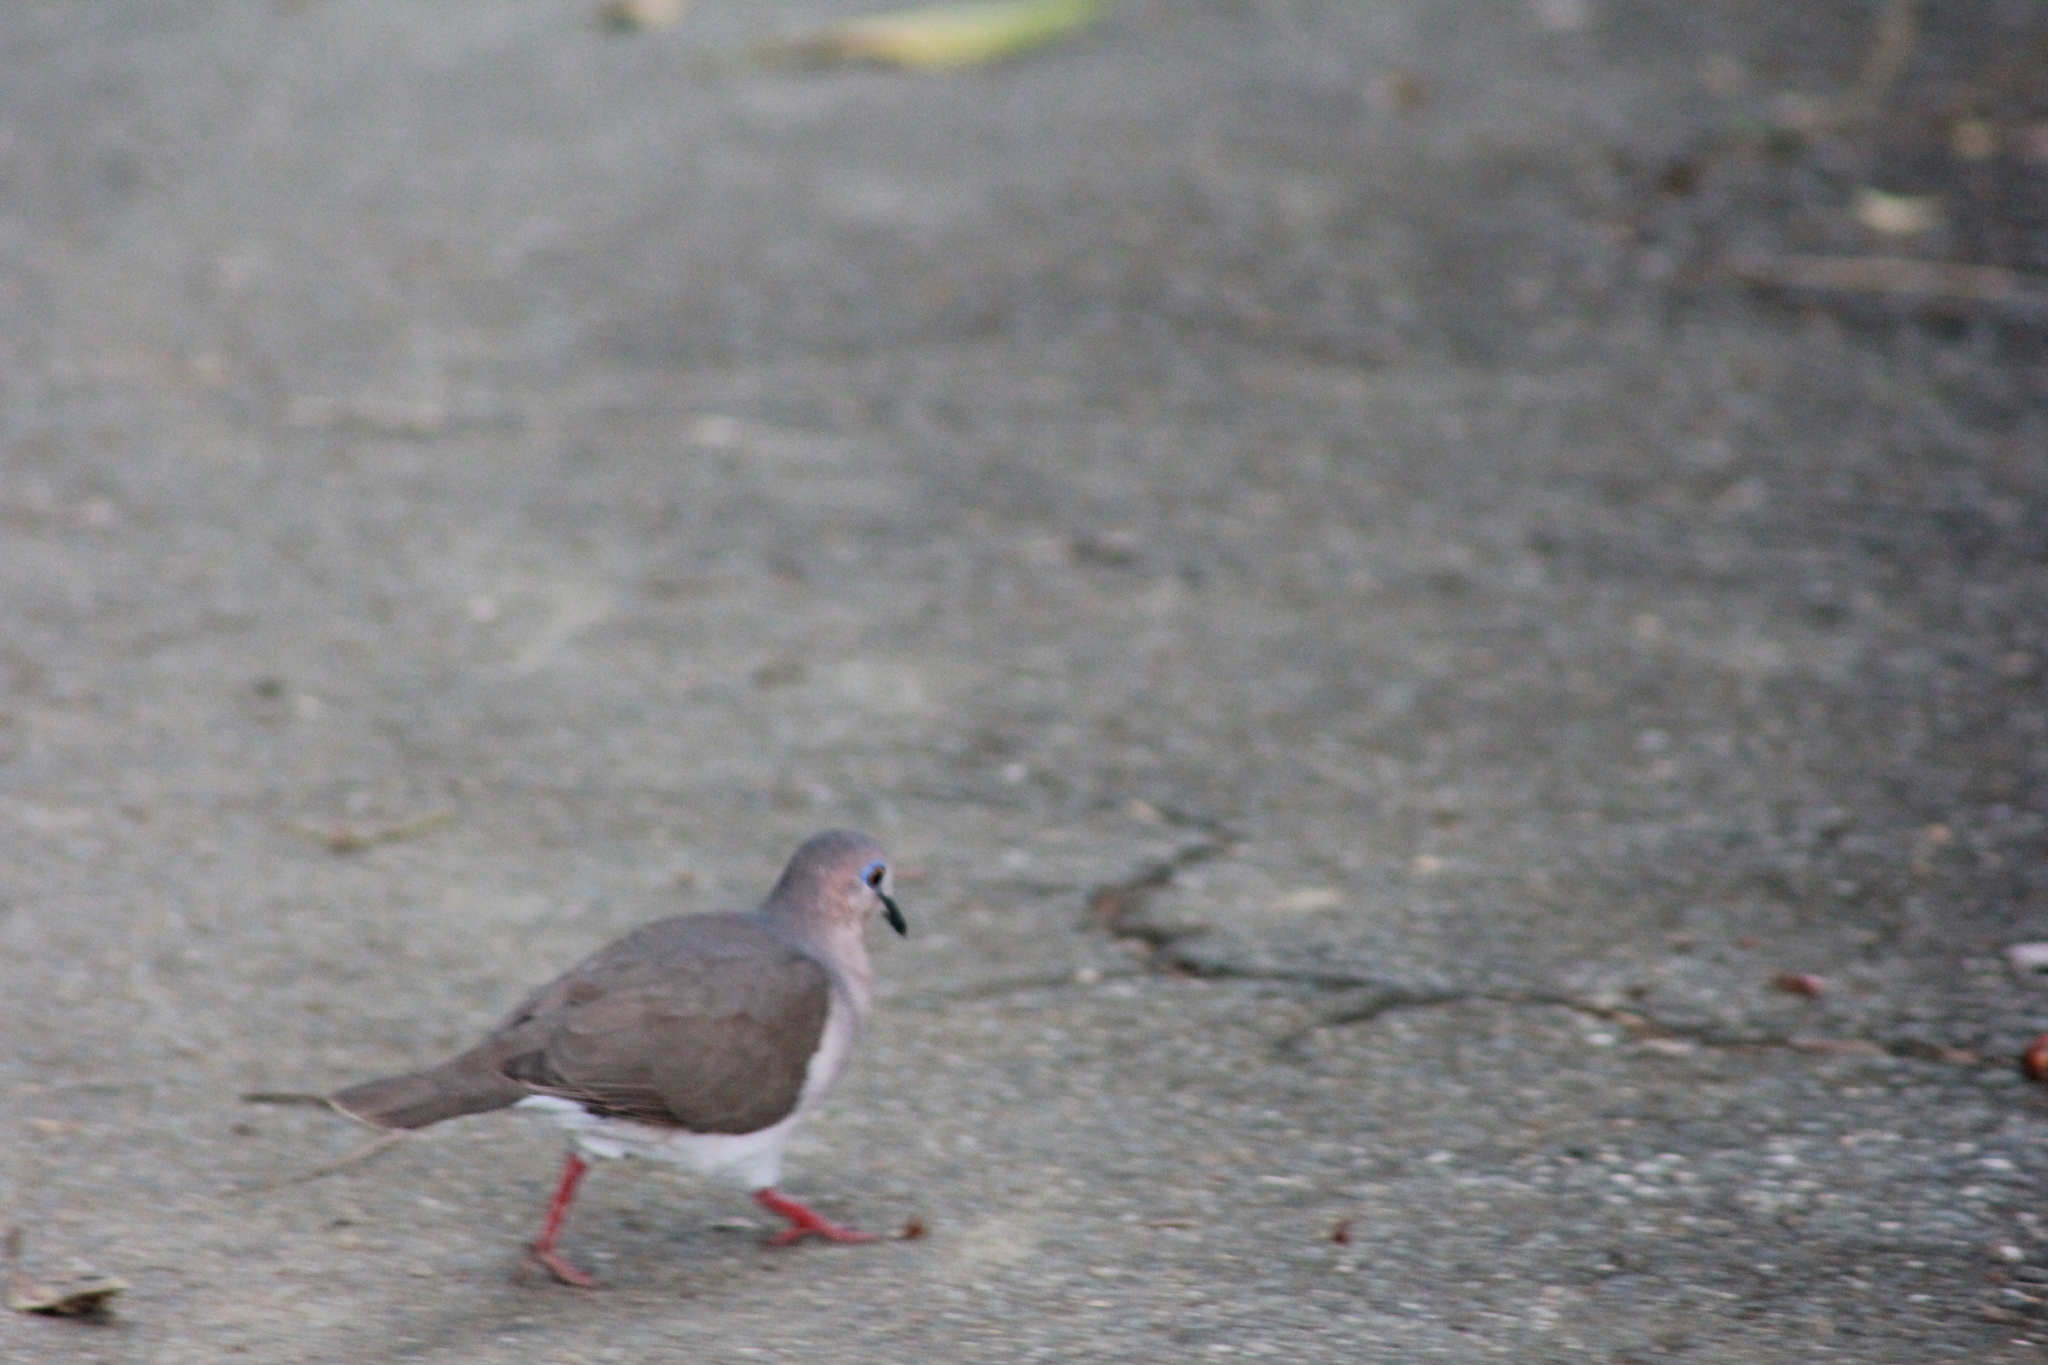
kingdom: Animalia
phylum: Chordata
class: Aves
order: Columbiformes
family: Columbidae
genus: Leptotila
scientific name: Leptotila verreauxi
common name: White-tipped dove
